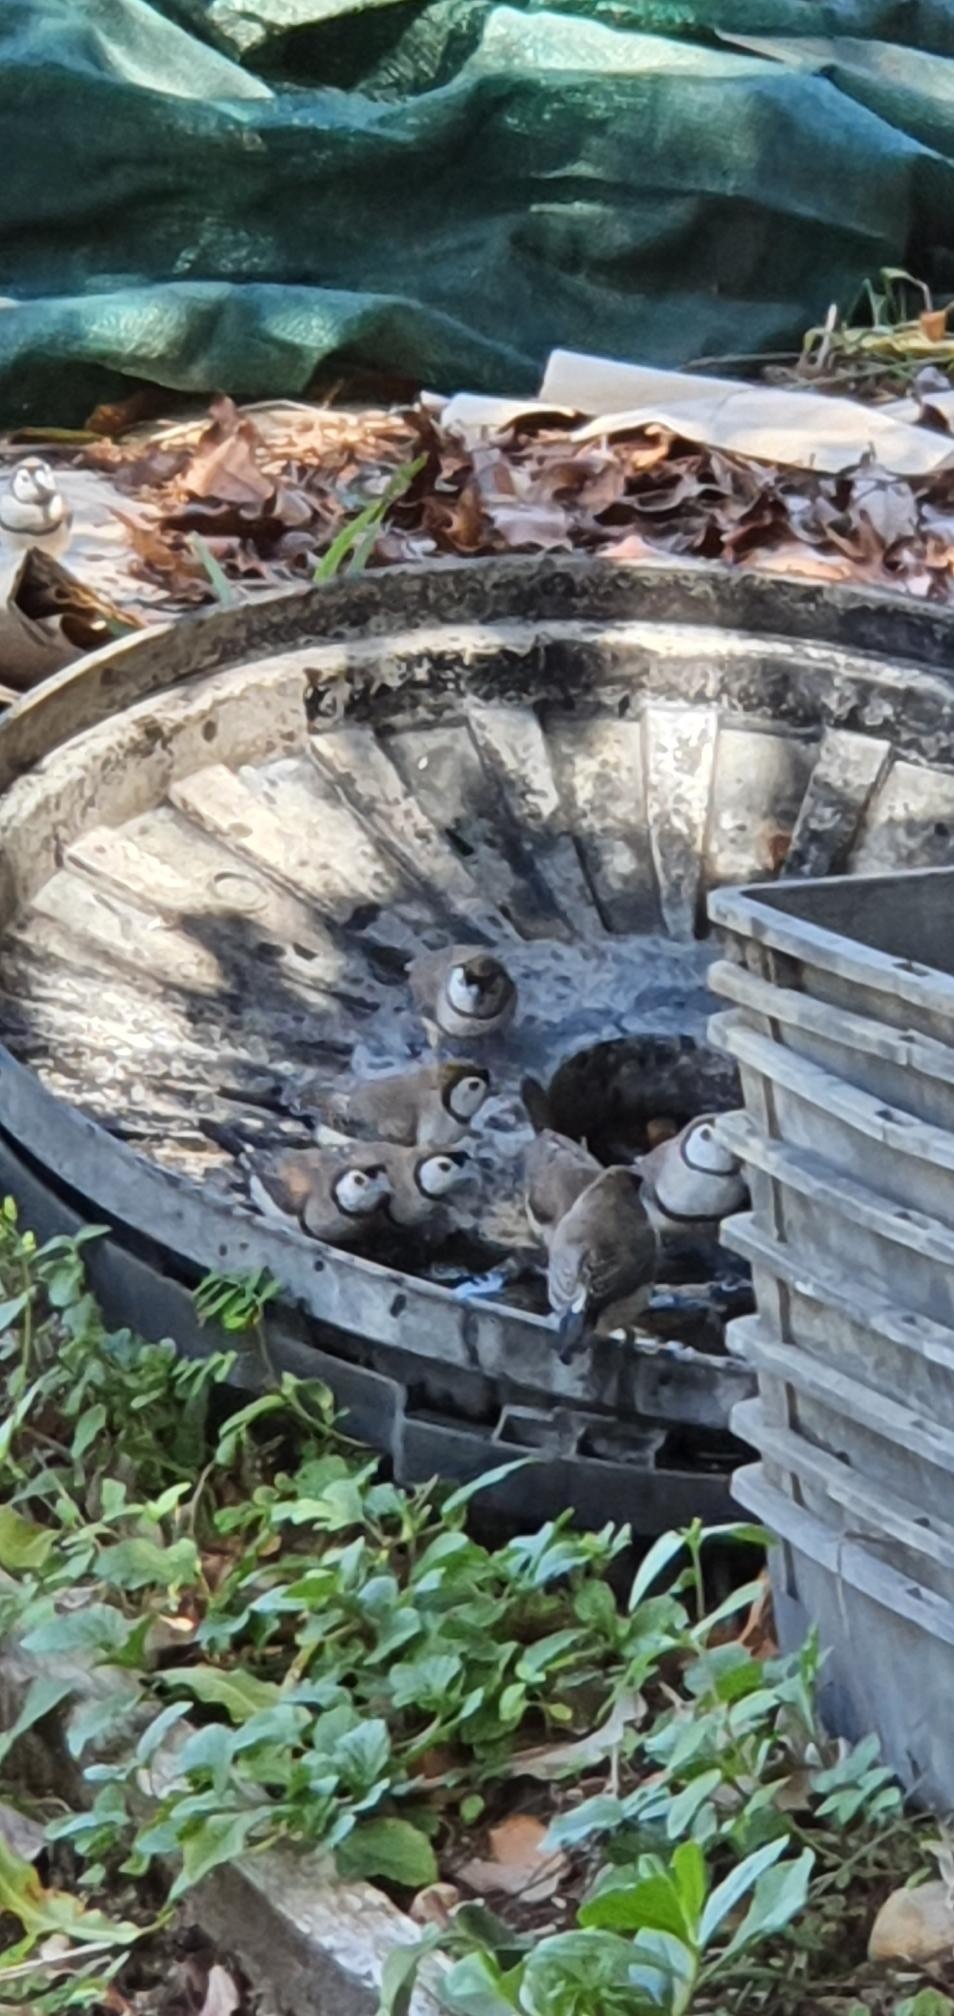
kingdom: Animalia
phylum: Chordata
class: Aves
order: Passeriformes
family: Estrildidae
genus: Taeniopygia
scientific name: Taeniopygia bichenovii
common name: Double-barred finch
